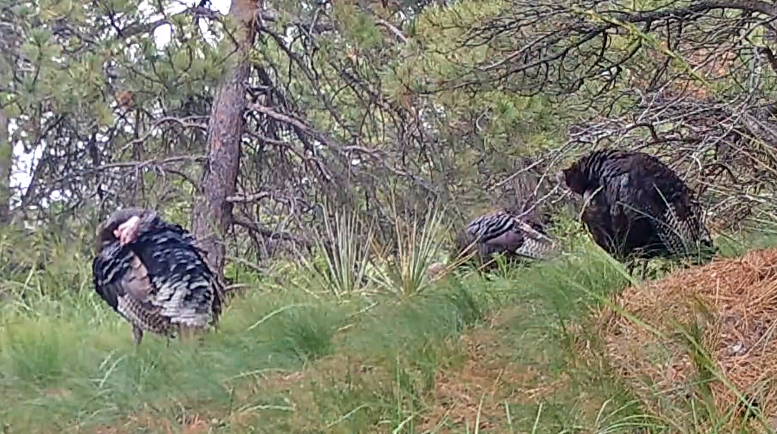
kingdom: Animalia
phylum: Chordata
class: Aves
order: Galliformes
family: Phasianidae
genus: Meleagris
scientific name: Meleagris gallopavo
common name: Wild turkey
